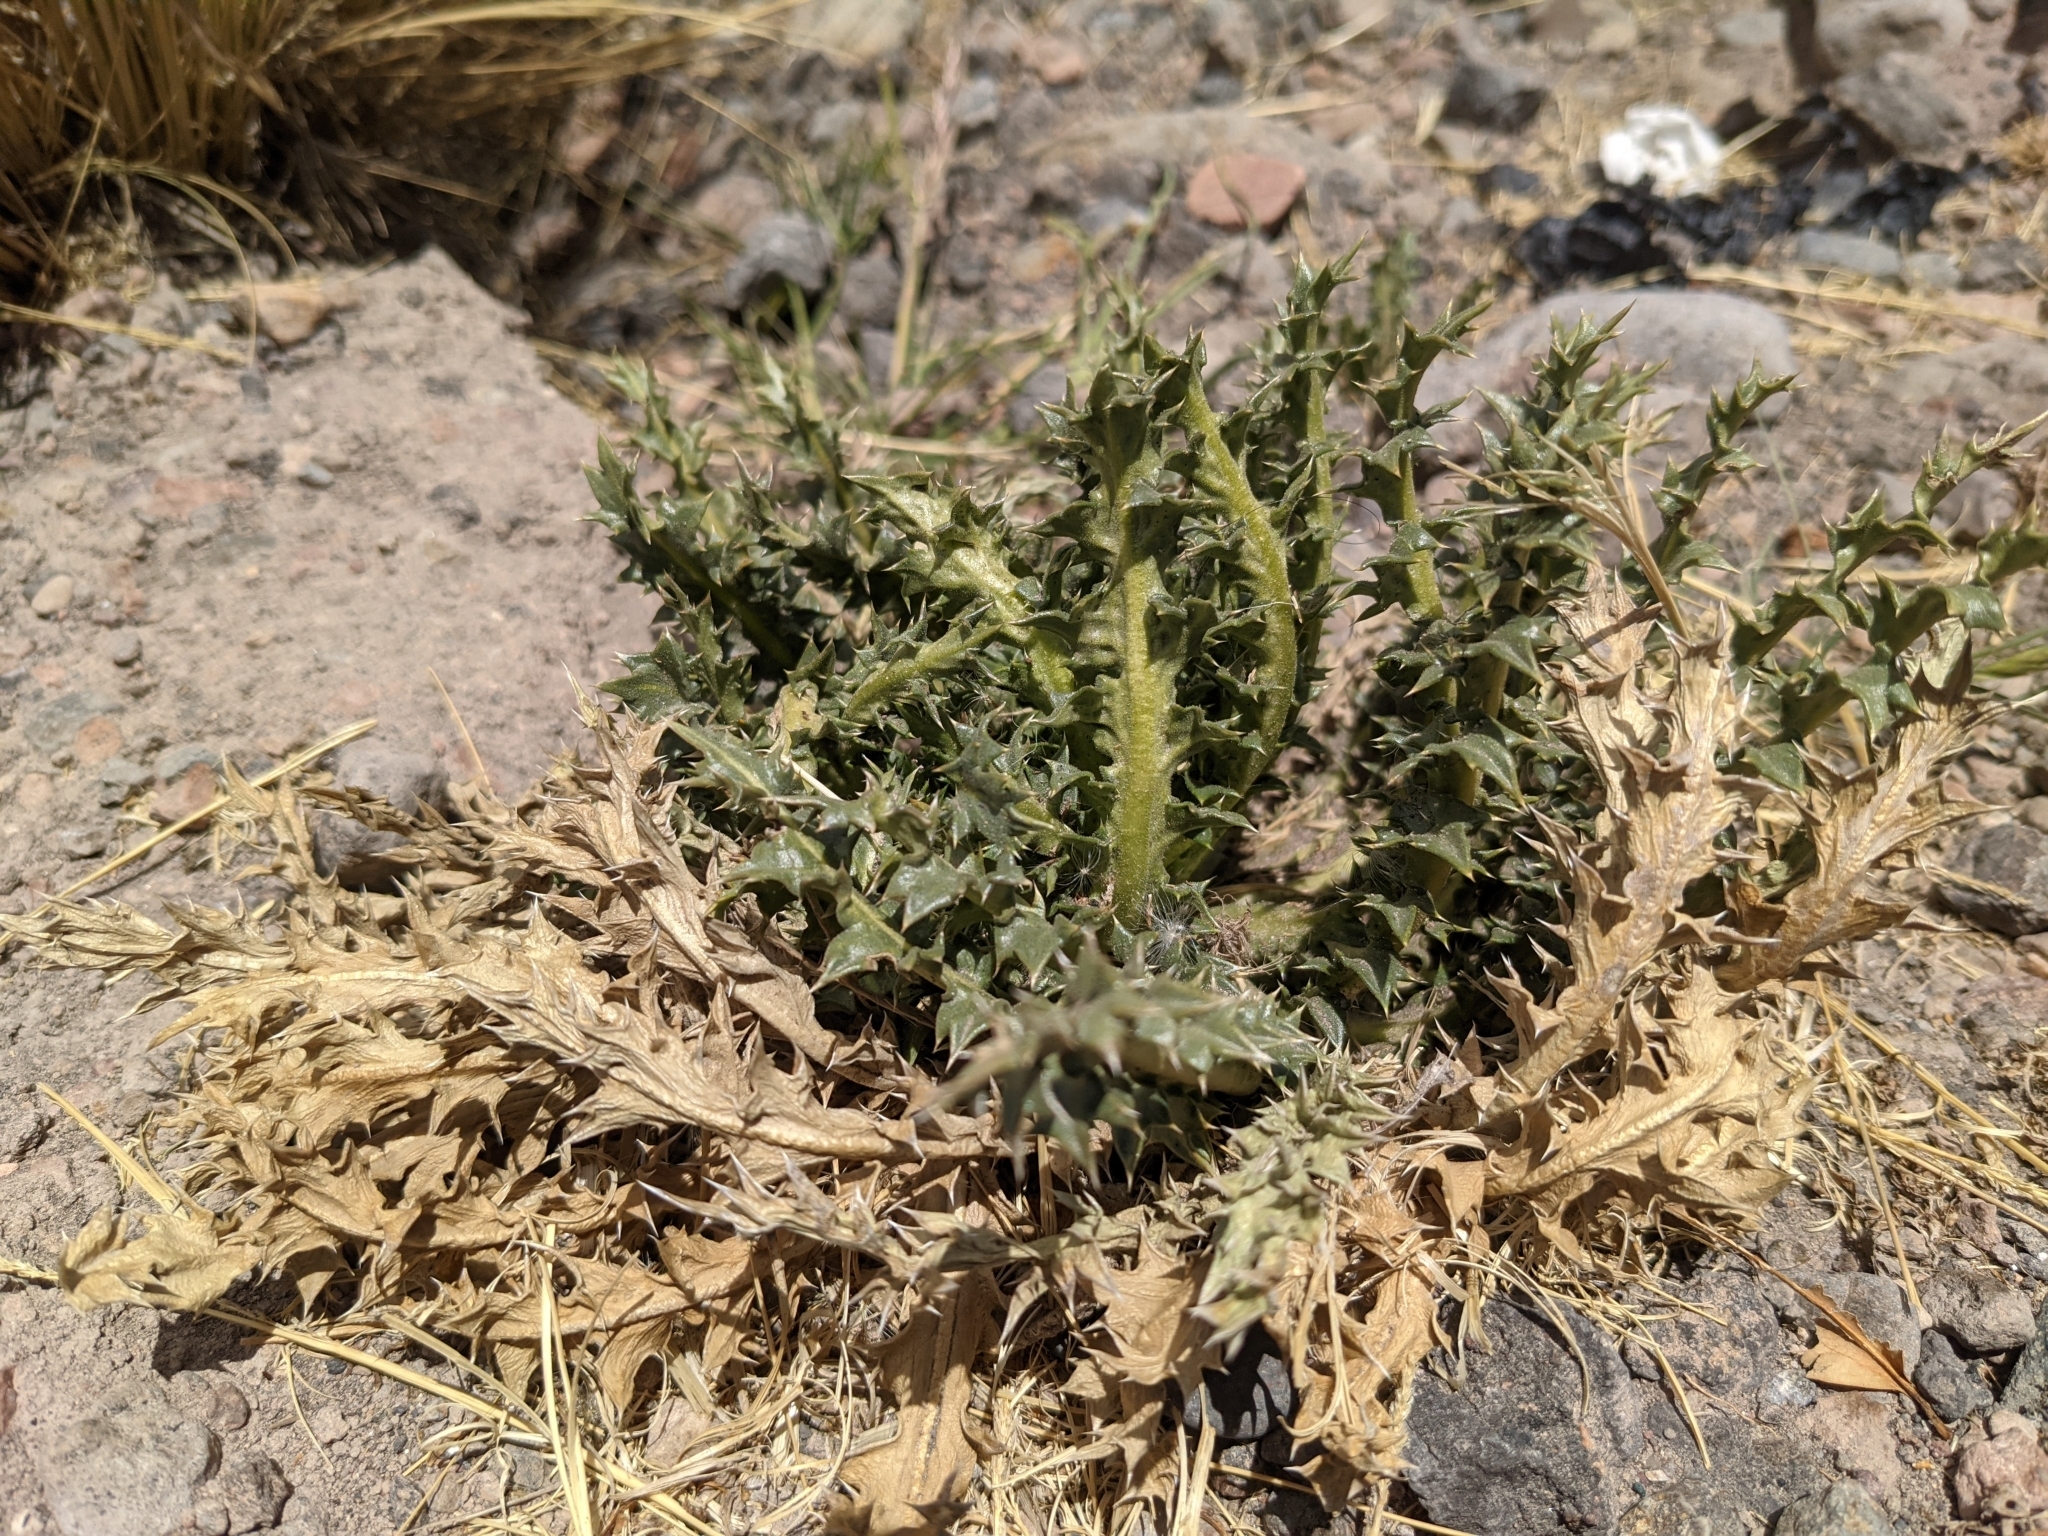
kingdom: Plantae
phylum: Tracheophyta
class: Magnoliopsida
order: Asterales
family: Asteraceae
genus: Perezia
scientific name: Perezia multiflora
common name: Perezia
